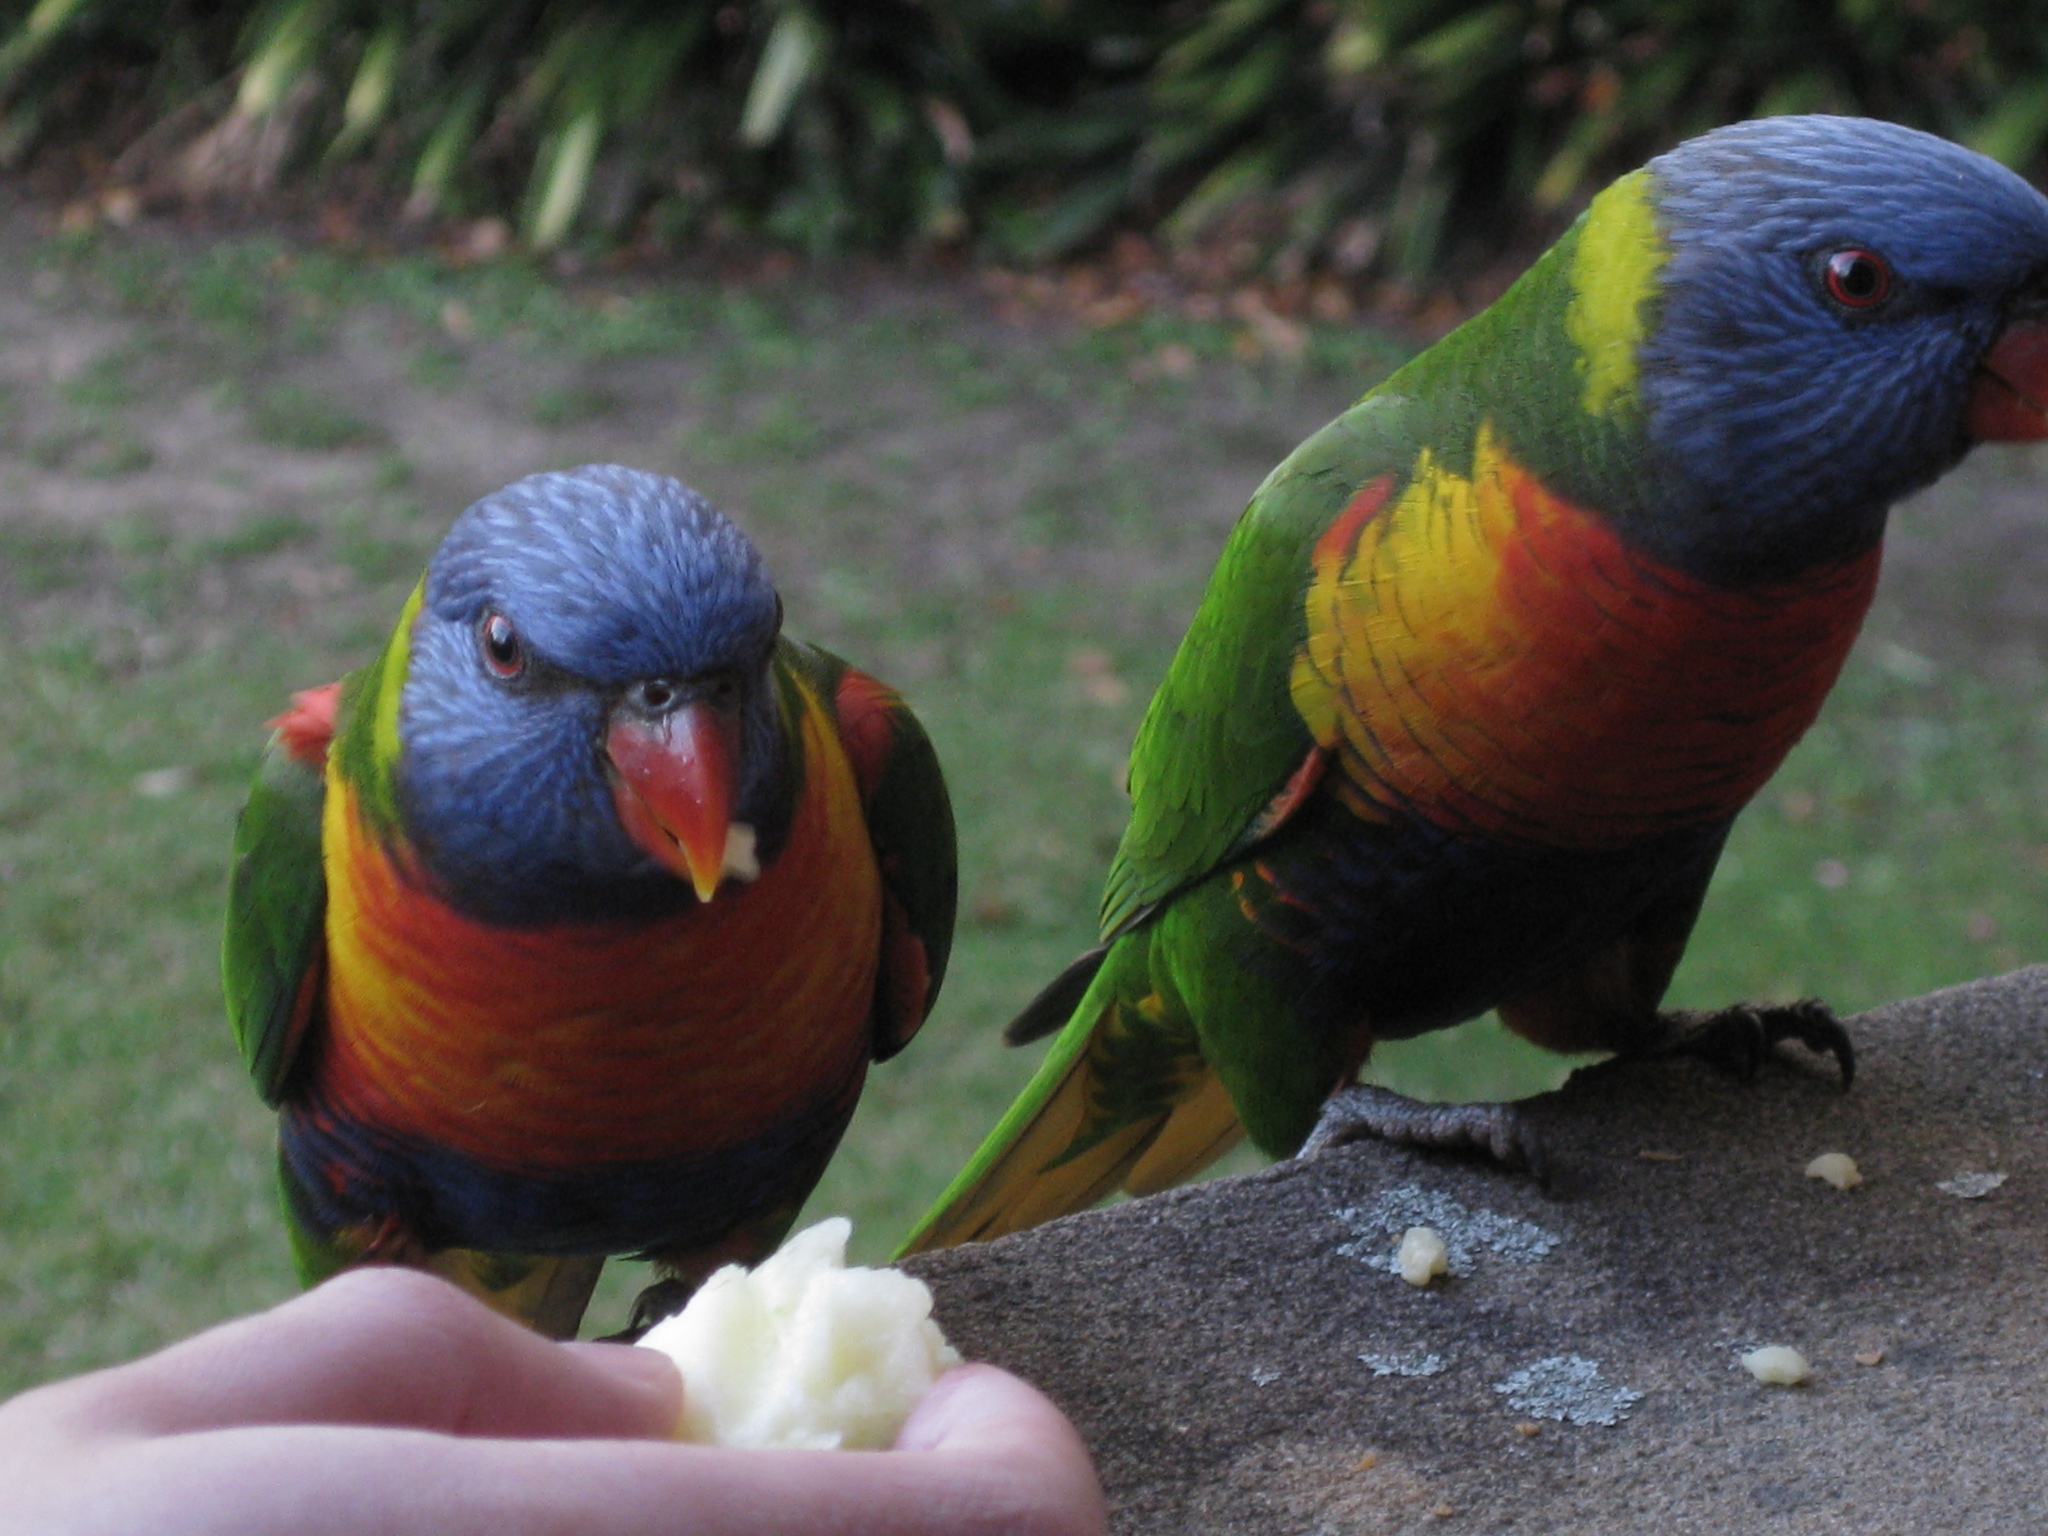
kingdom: Animalia
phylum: Chordata
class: Aves
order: Psittaciformes
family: Psittacidae
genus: Trichoglossus
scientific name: Trichoglossus haematodus
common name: Coconut lorikeet
